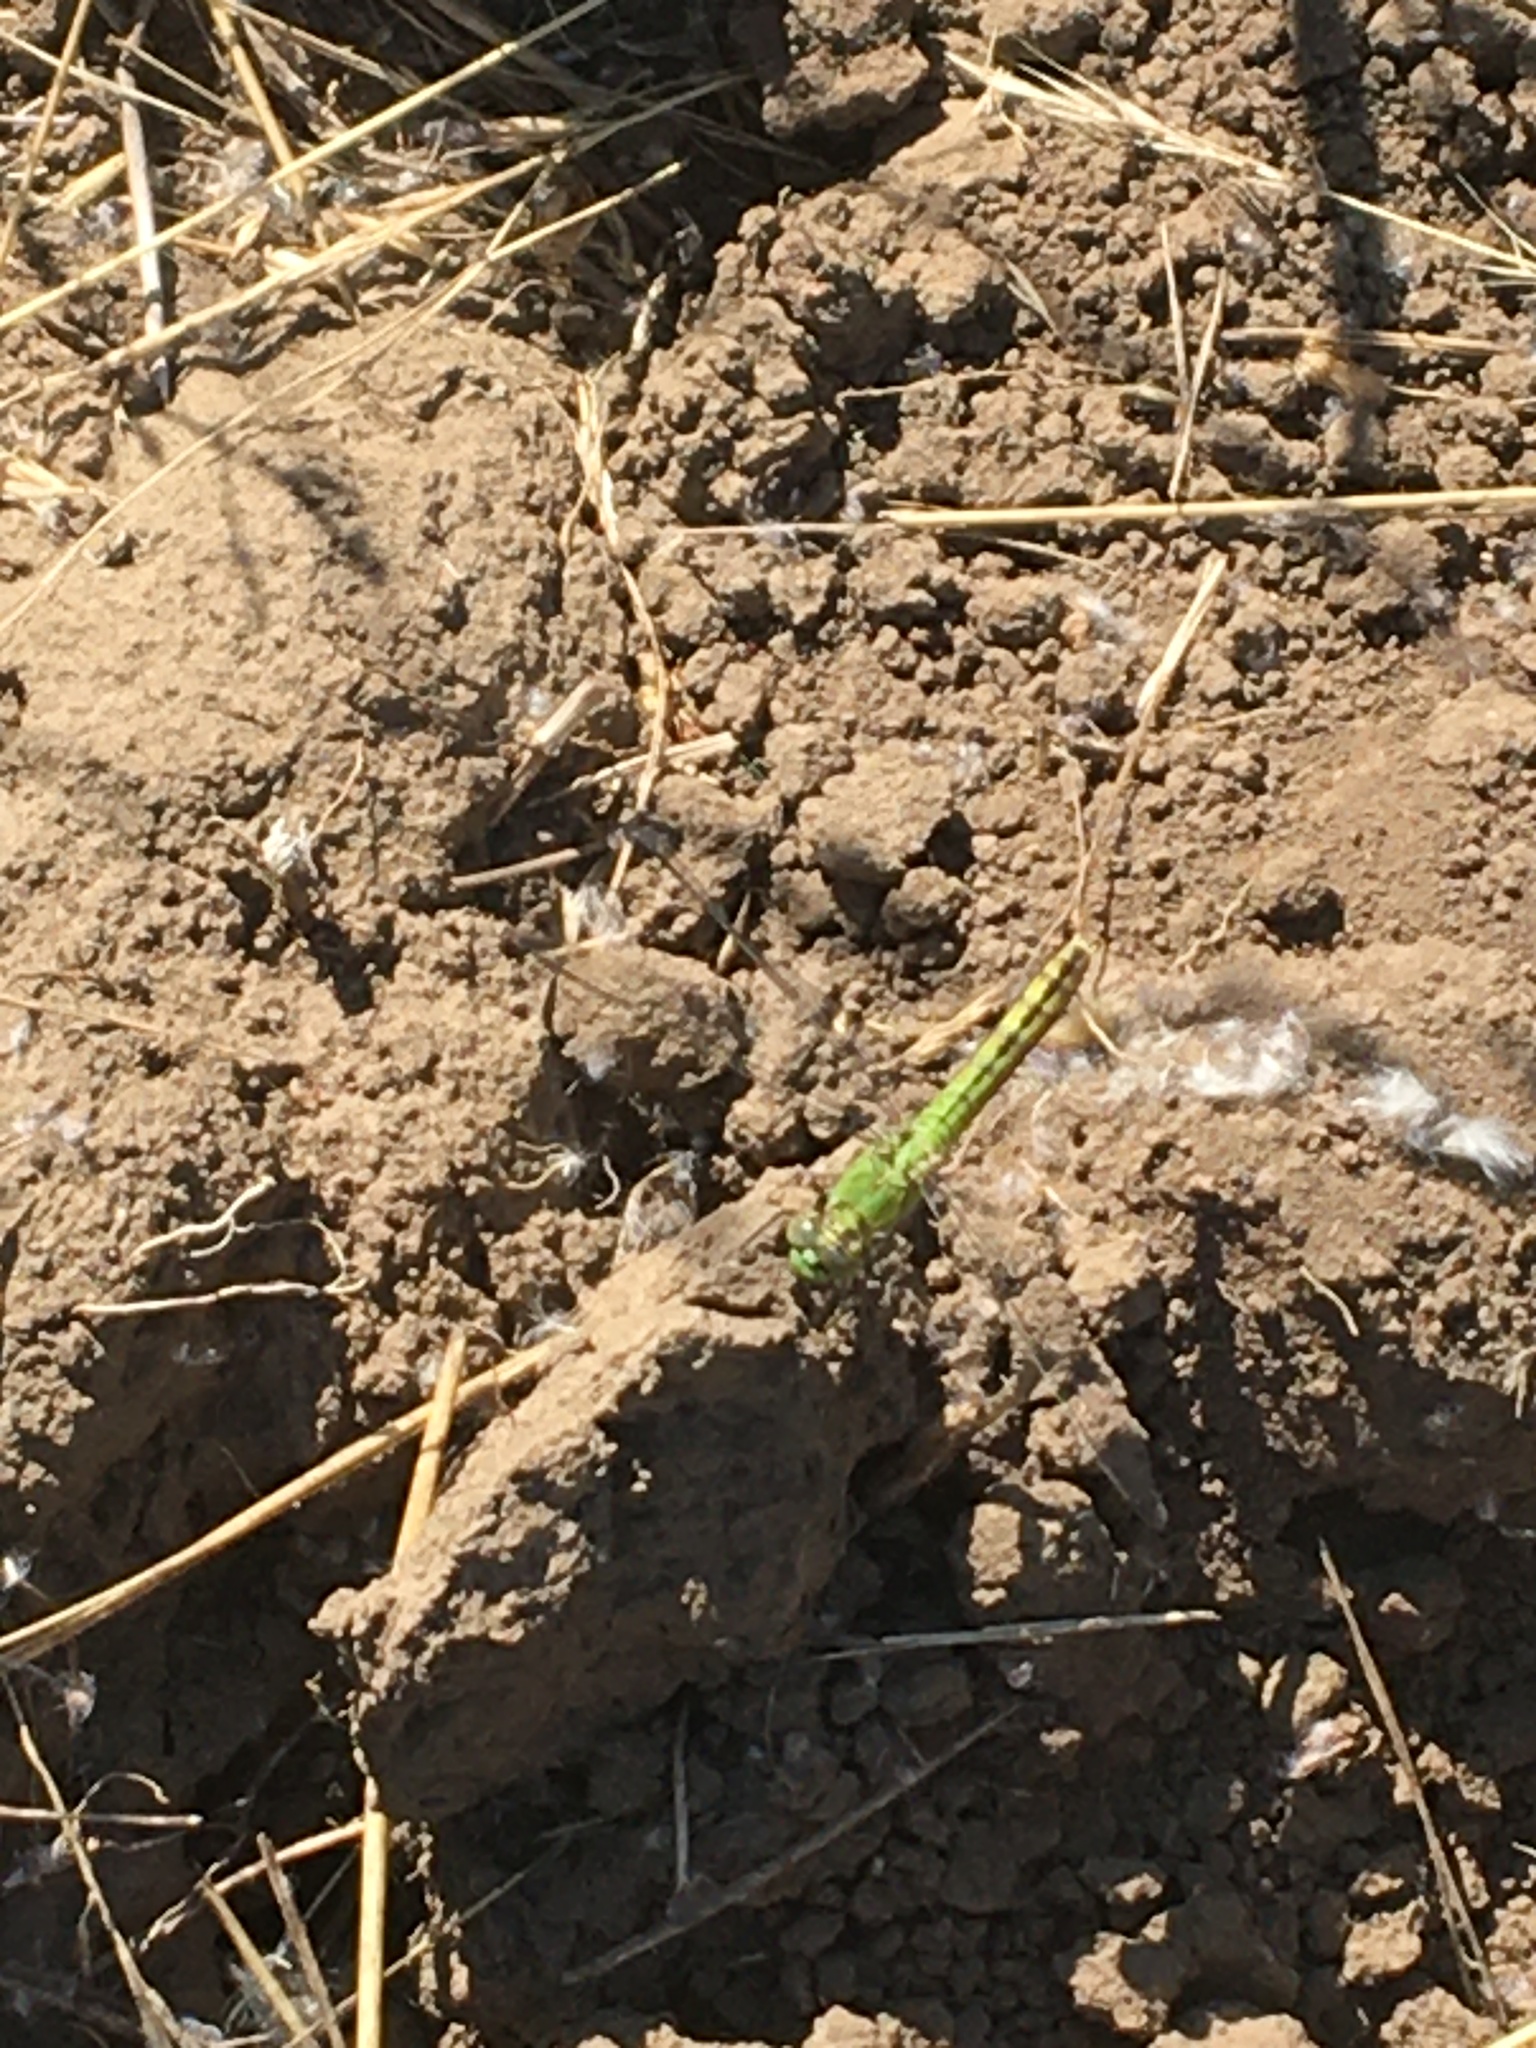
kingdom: Animalia
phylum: Arthropoda
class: Insecta
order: Odonata
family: Libellulidae
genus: Erythemis
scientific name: Erythemis collocata
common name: Western pondhawk
